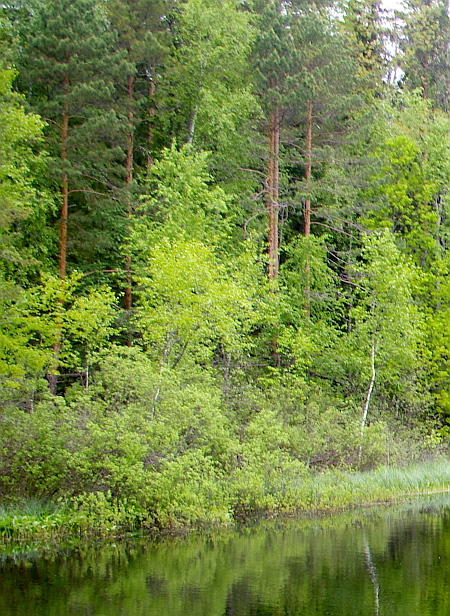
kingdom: Plantae
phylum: Tracheophyta
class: Pinopsida
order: Pinales
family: Pinaceae
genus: Pinus
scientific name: Pinus sylvestris
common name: Scots pine
